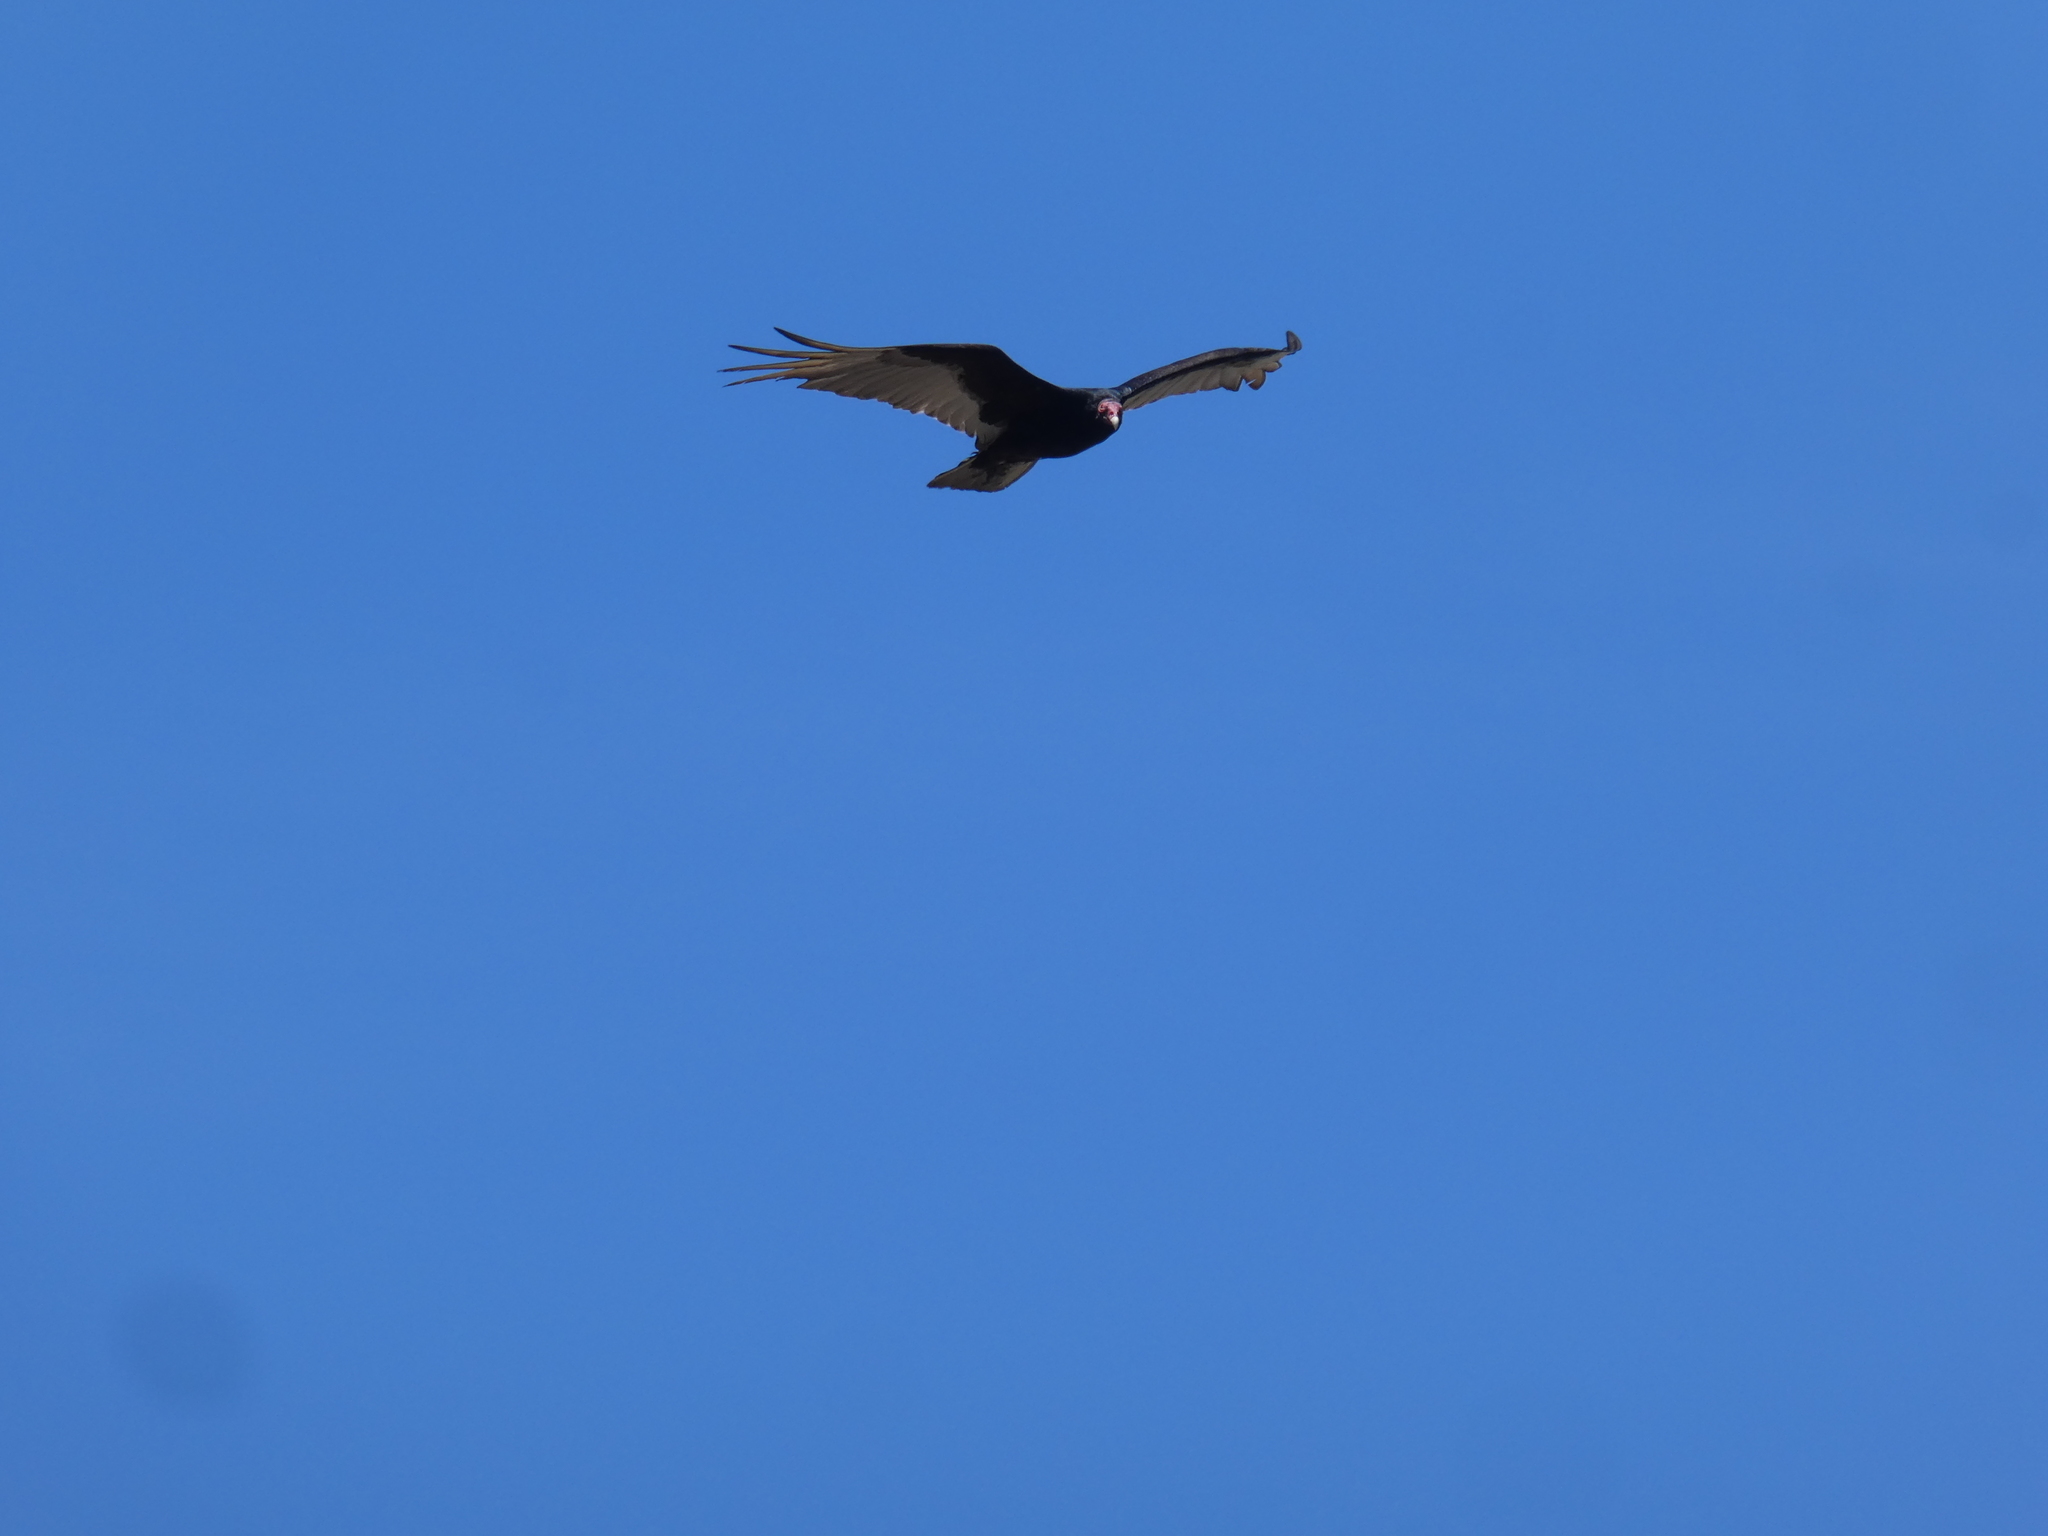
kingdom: Animalia
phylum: Chordata
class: Aves
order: Accipitriformes
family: Cathartidae
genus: Cathartes
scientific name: Cathartes aura
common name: Turkey vulture
